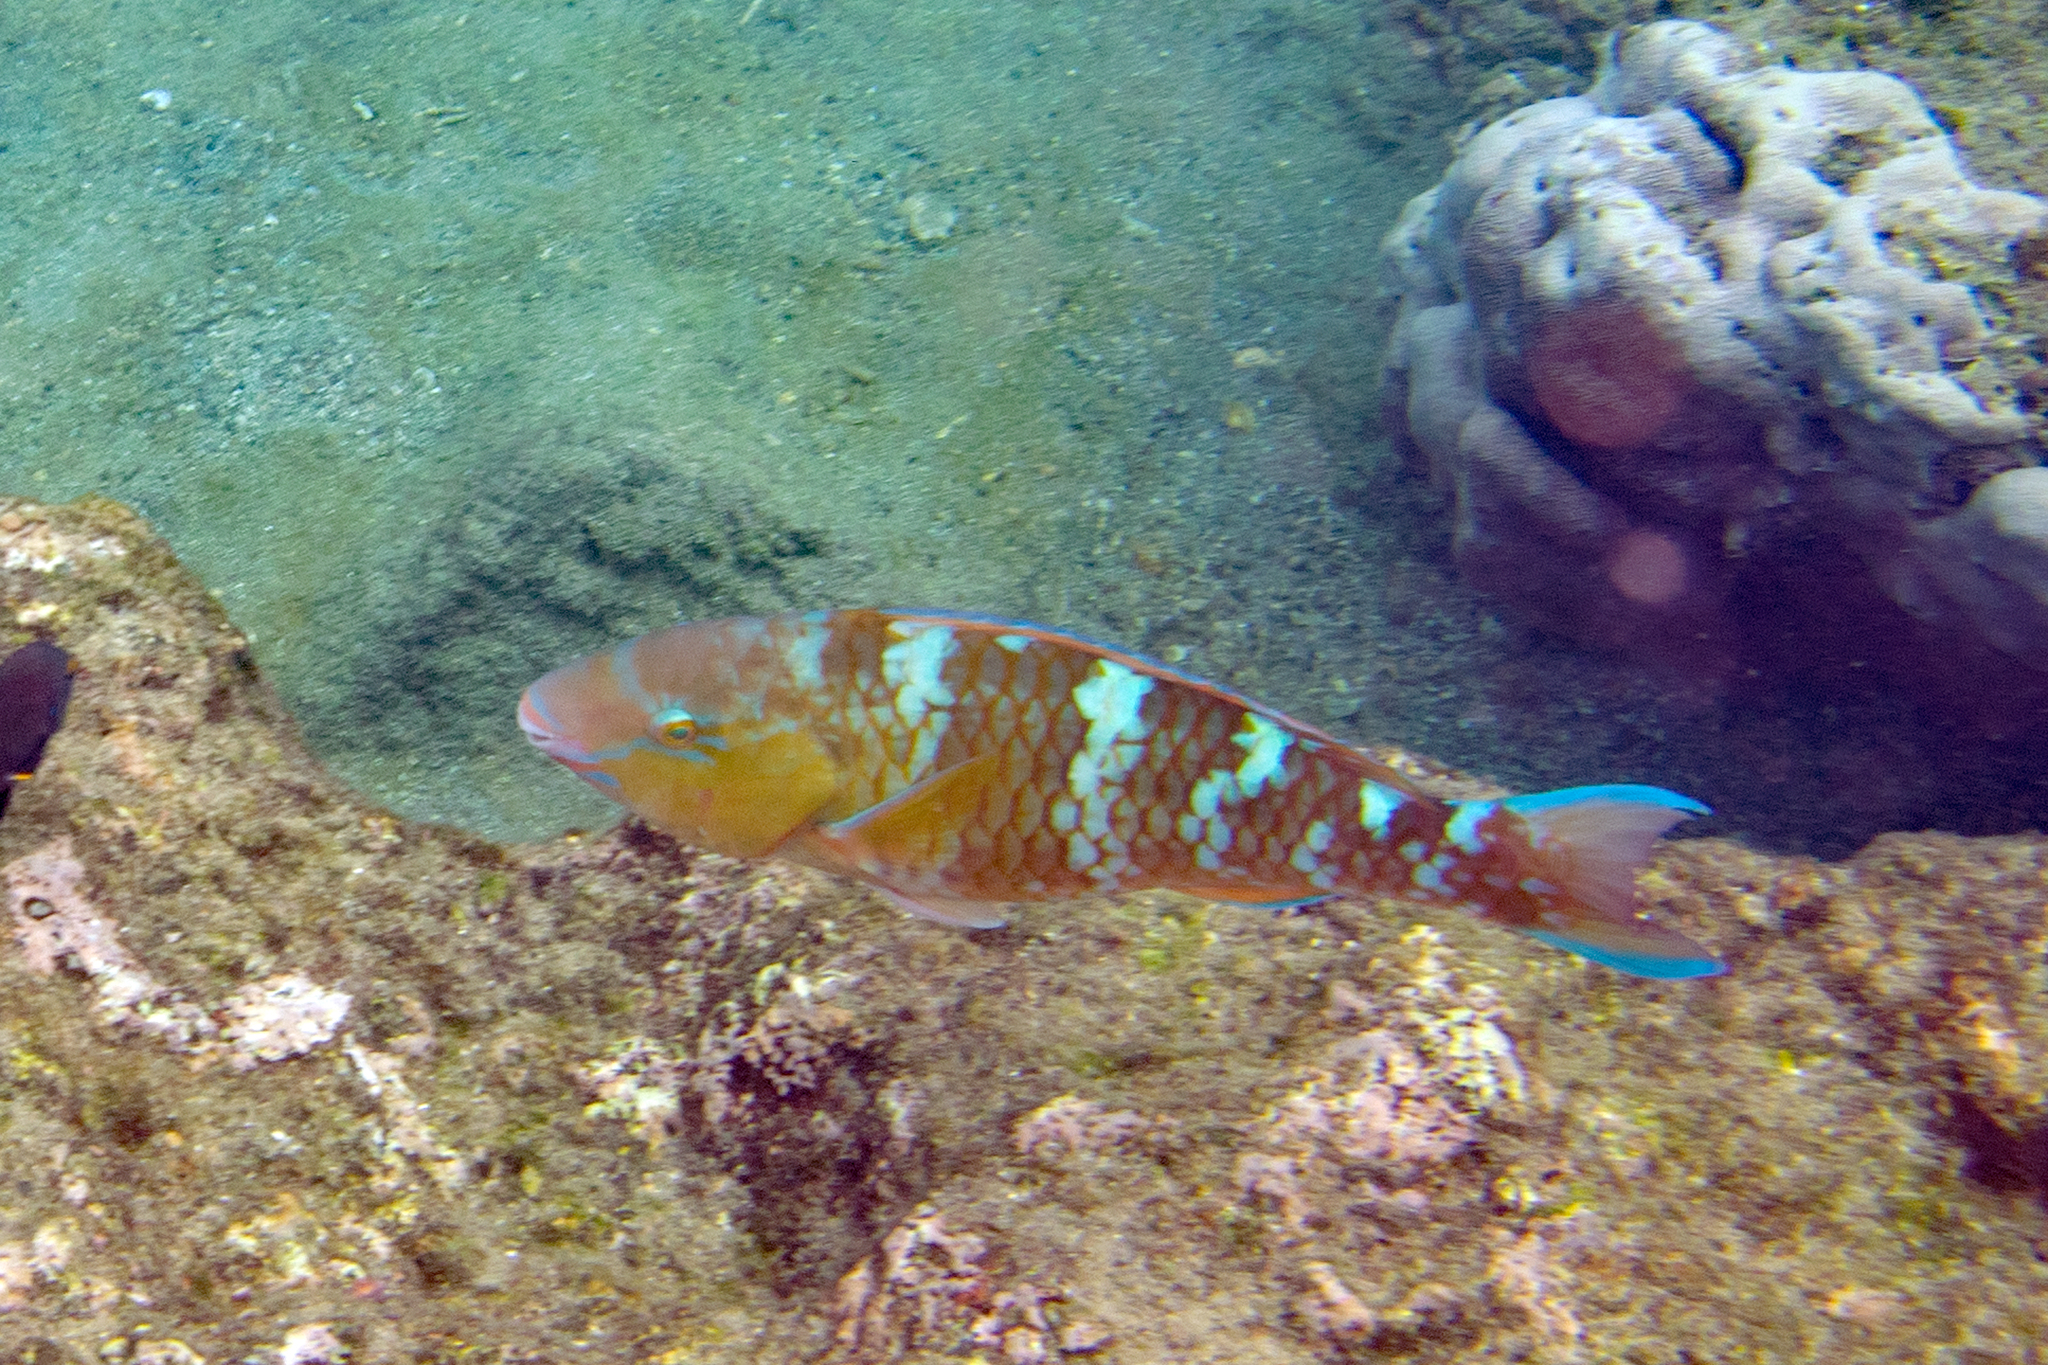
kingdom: Animalia
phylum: Chordata
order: Perciformes
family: Scaridae
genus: Scarus
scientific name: Scarus ghobban
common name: Blue-barred parrotfish
